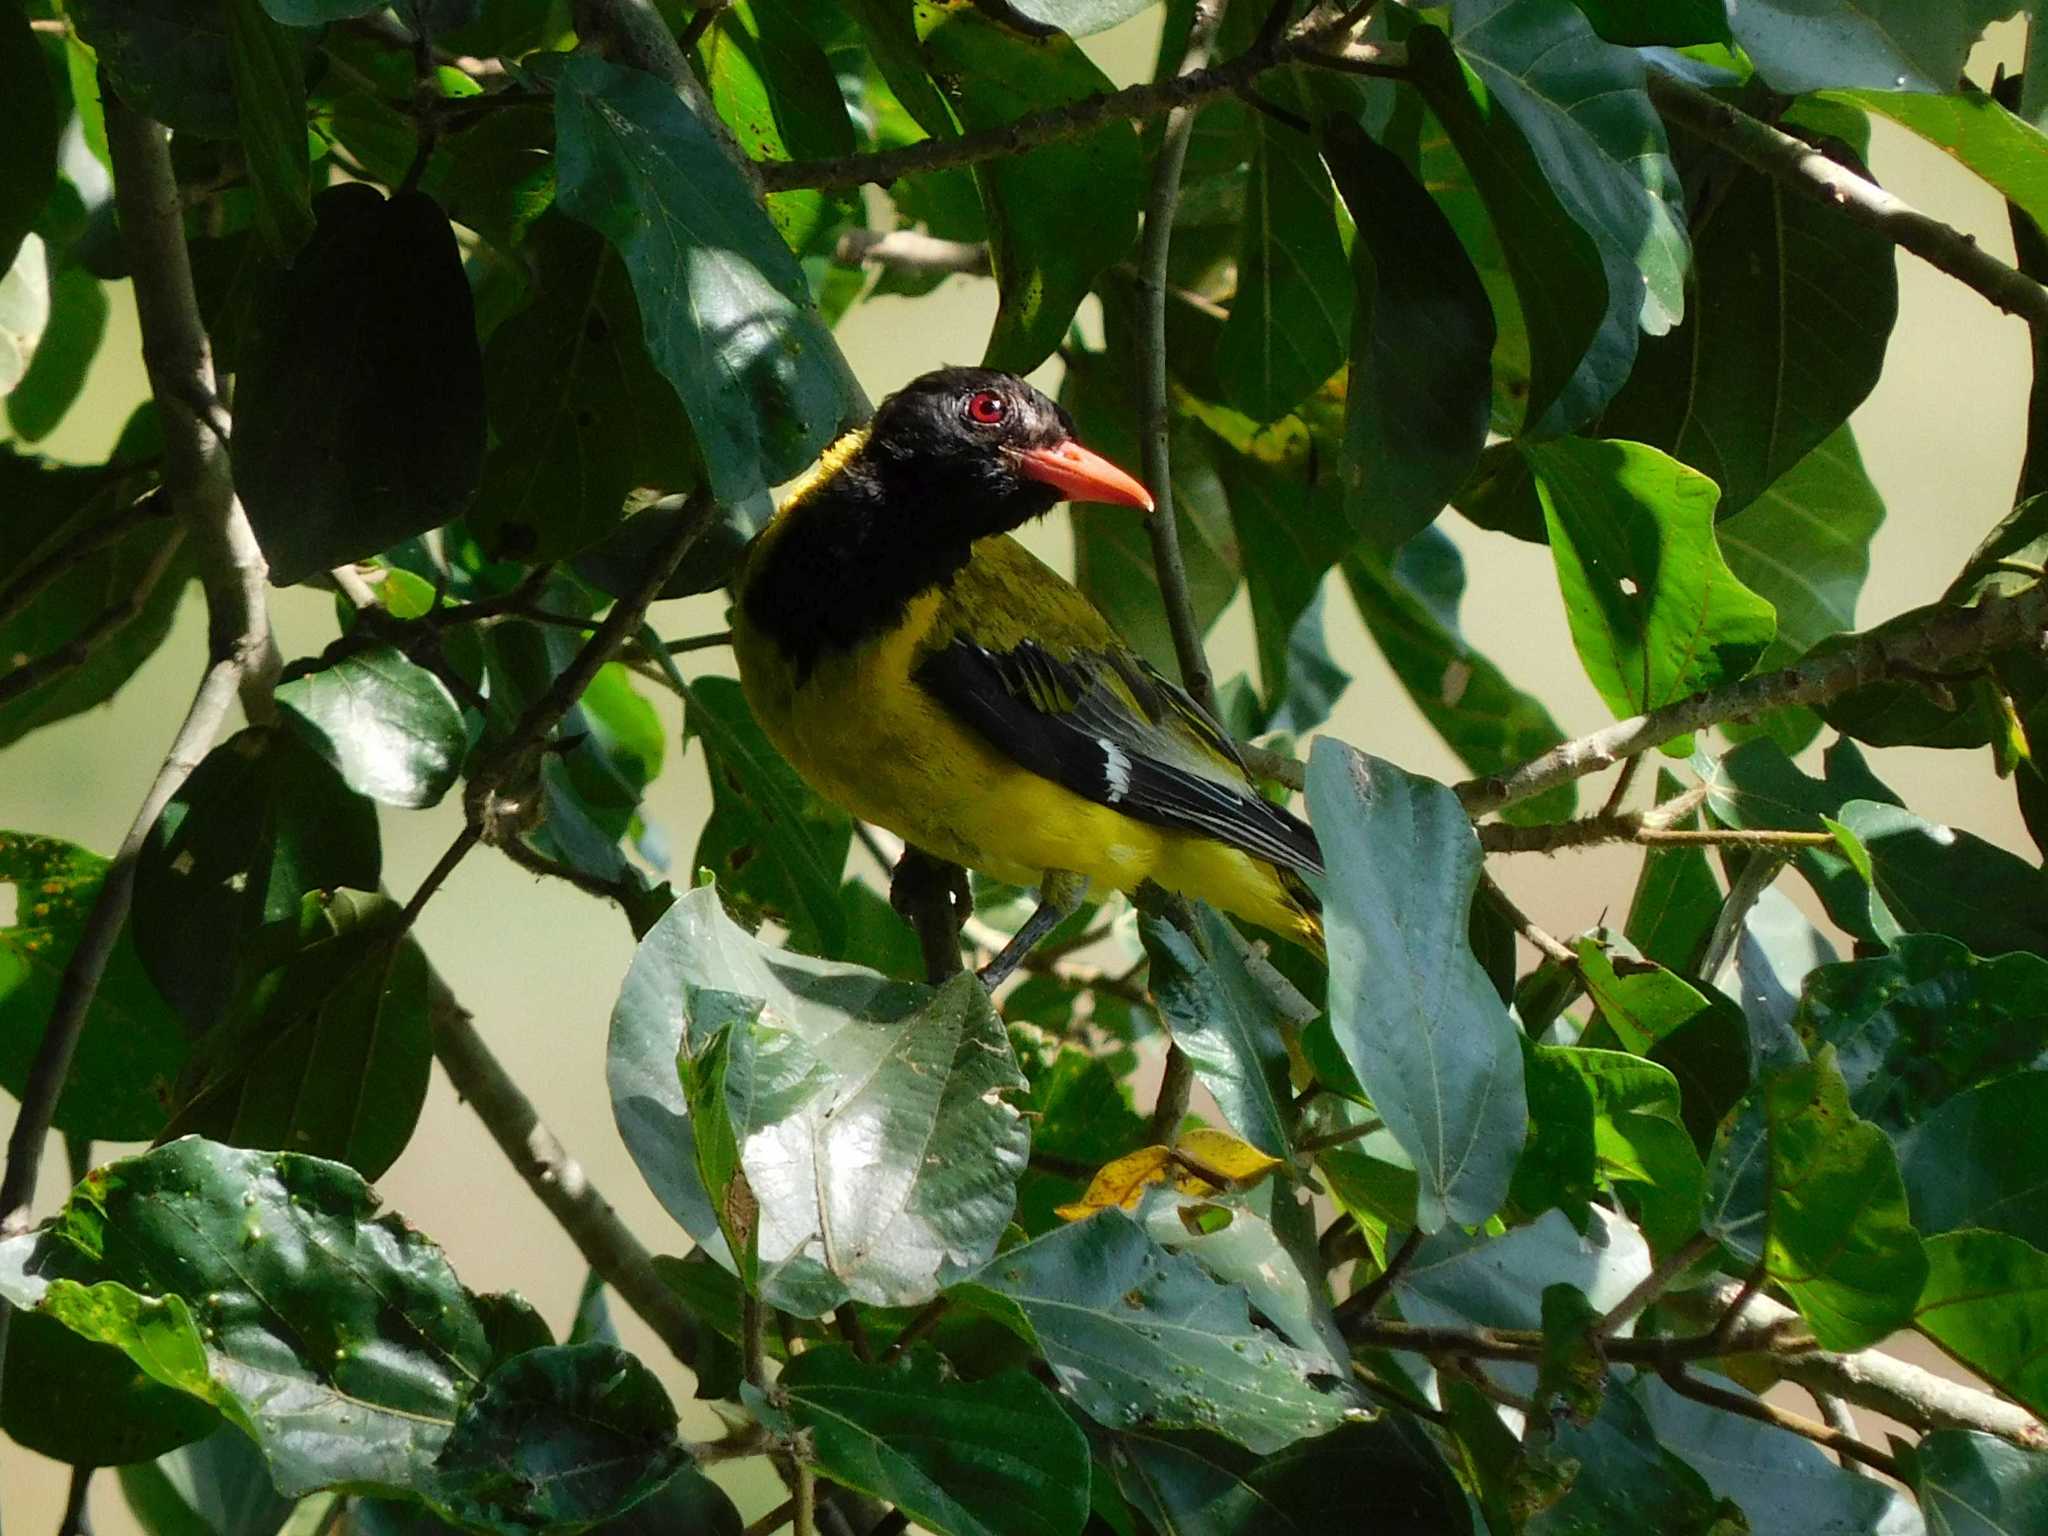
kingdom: Animalia
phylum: Chordata
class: Aves
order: Passeriformes
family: Oriolidae
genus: Oriolus
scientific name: Oriolus larvatus
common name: Black-headed oriole
